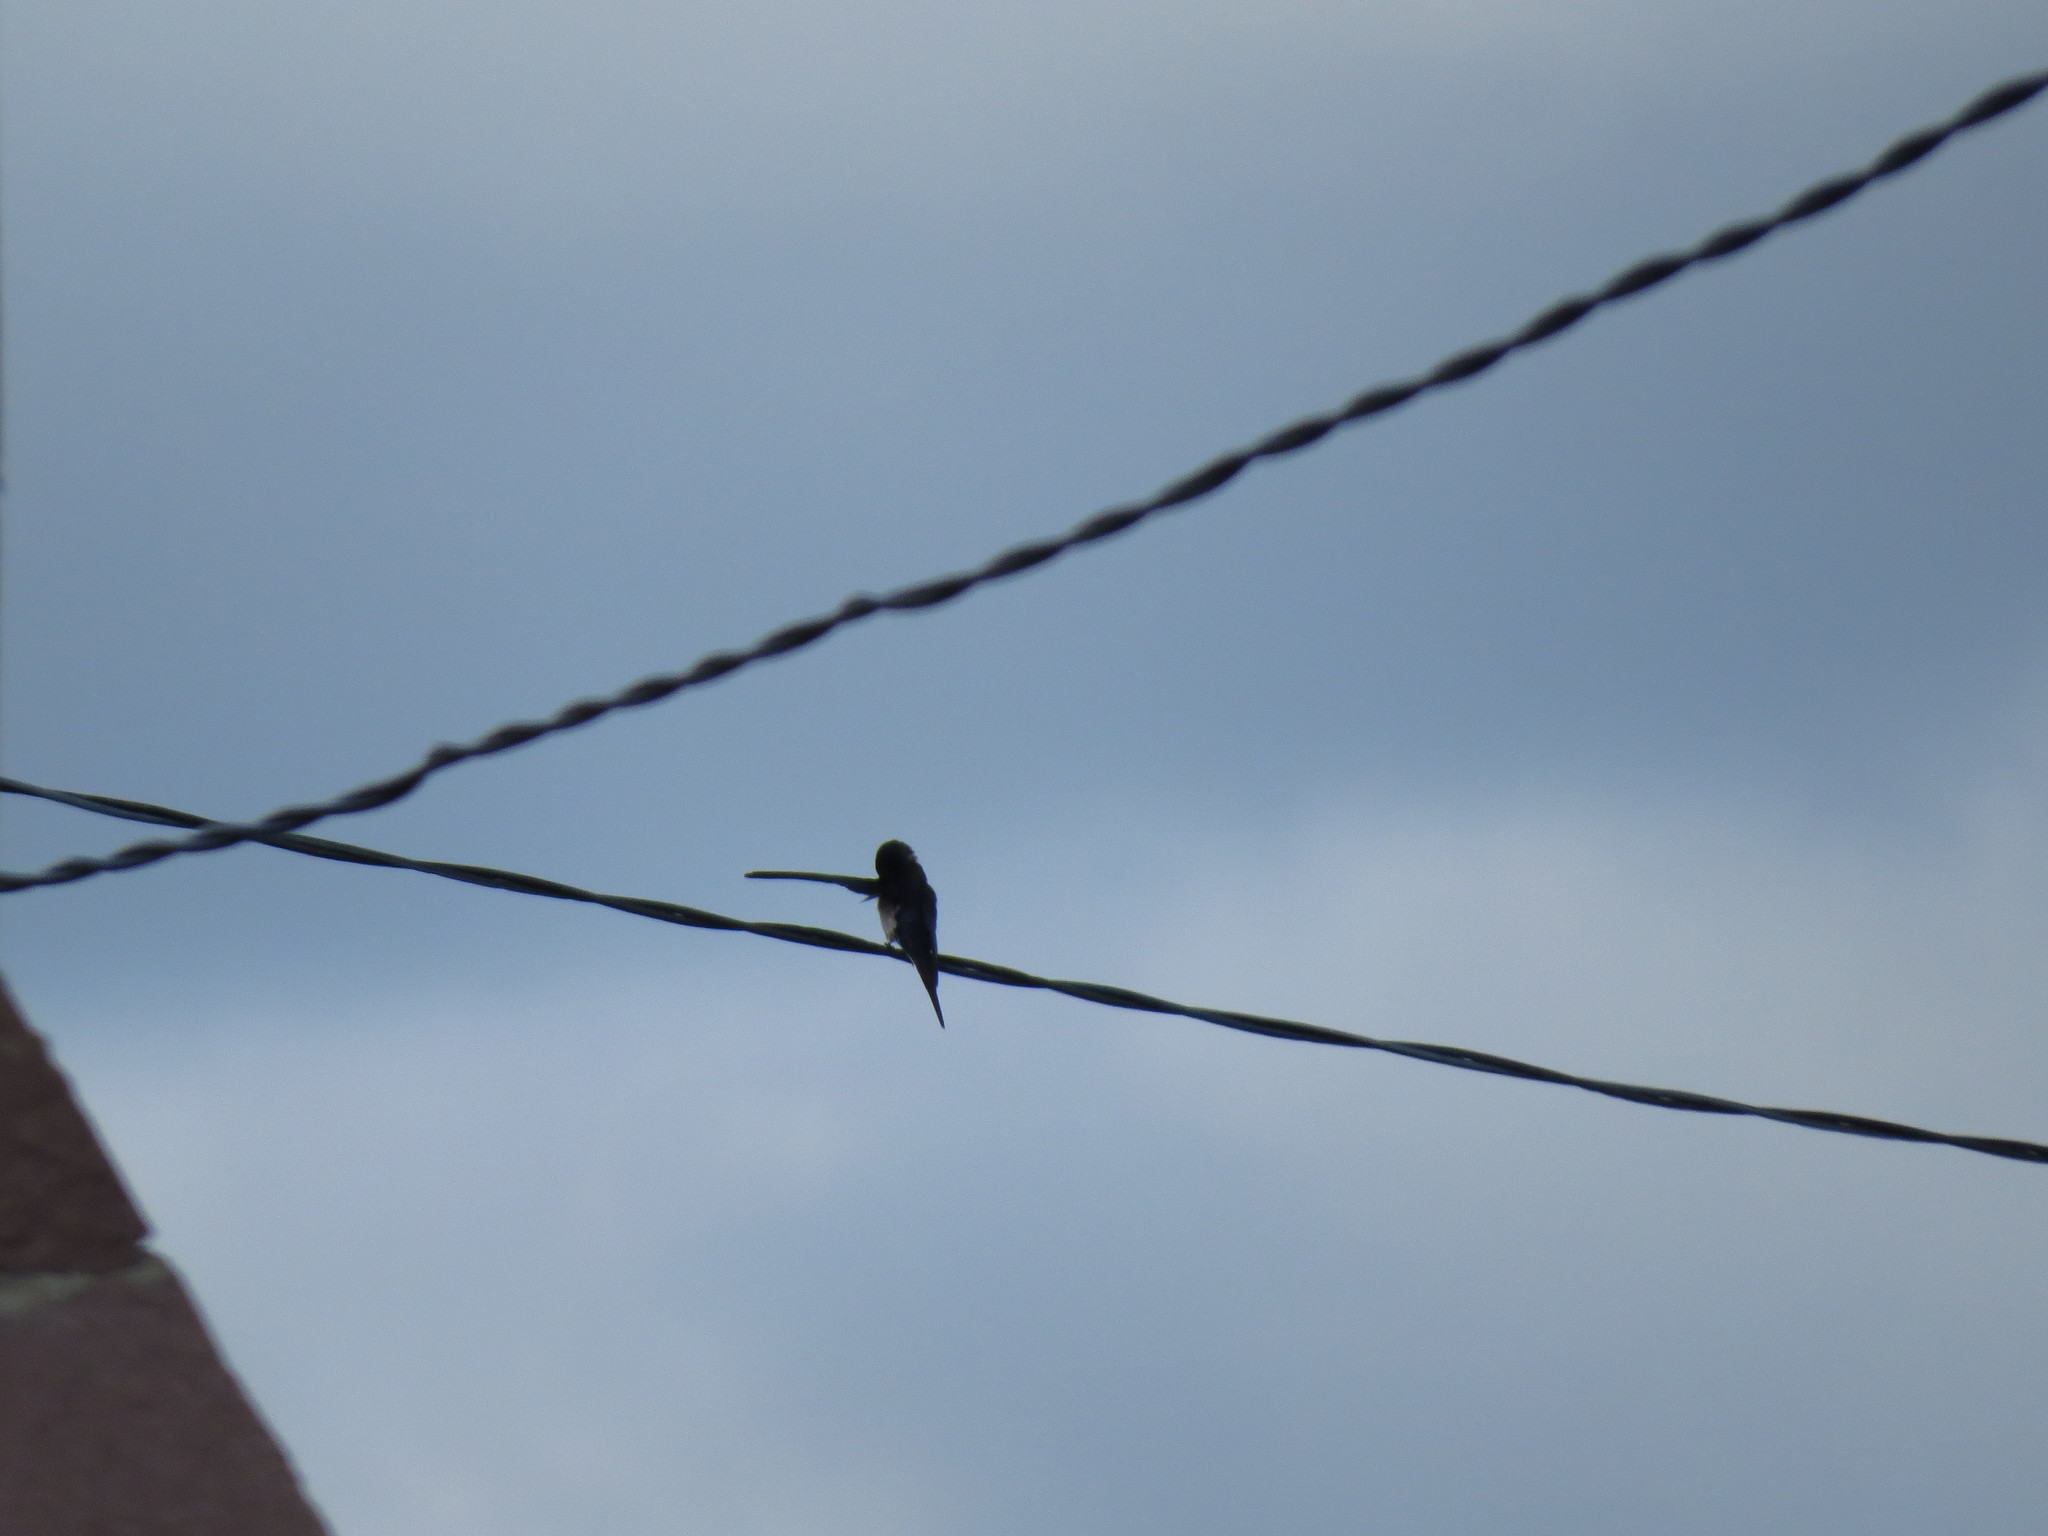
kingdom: Animalia
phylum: Chordata
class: Aves
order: Passeriformes
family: Hirundinidae
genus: Hirundo
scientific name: Hirundo rustica
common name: Barn swallow
